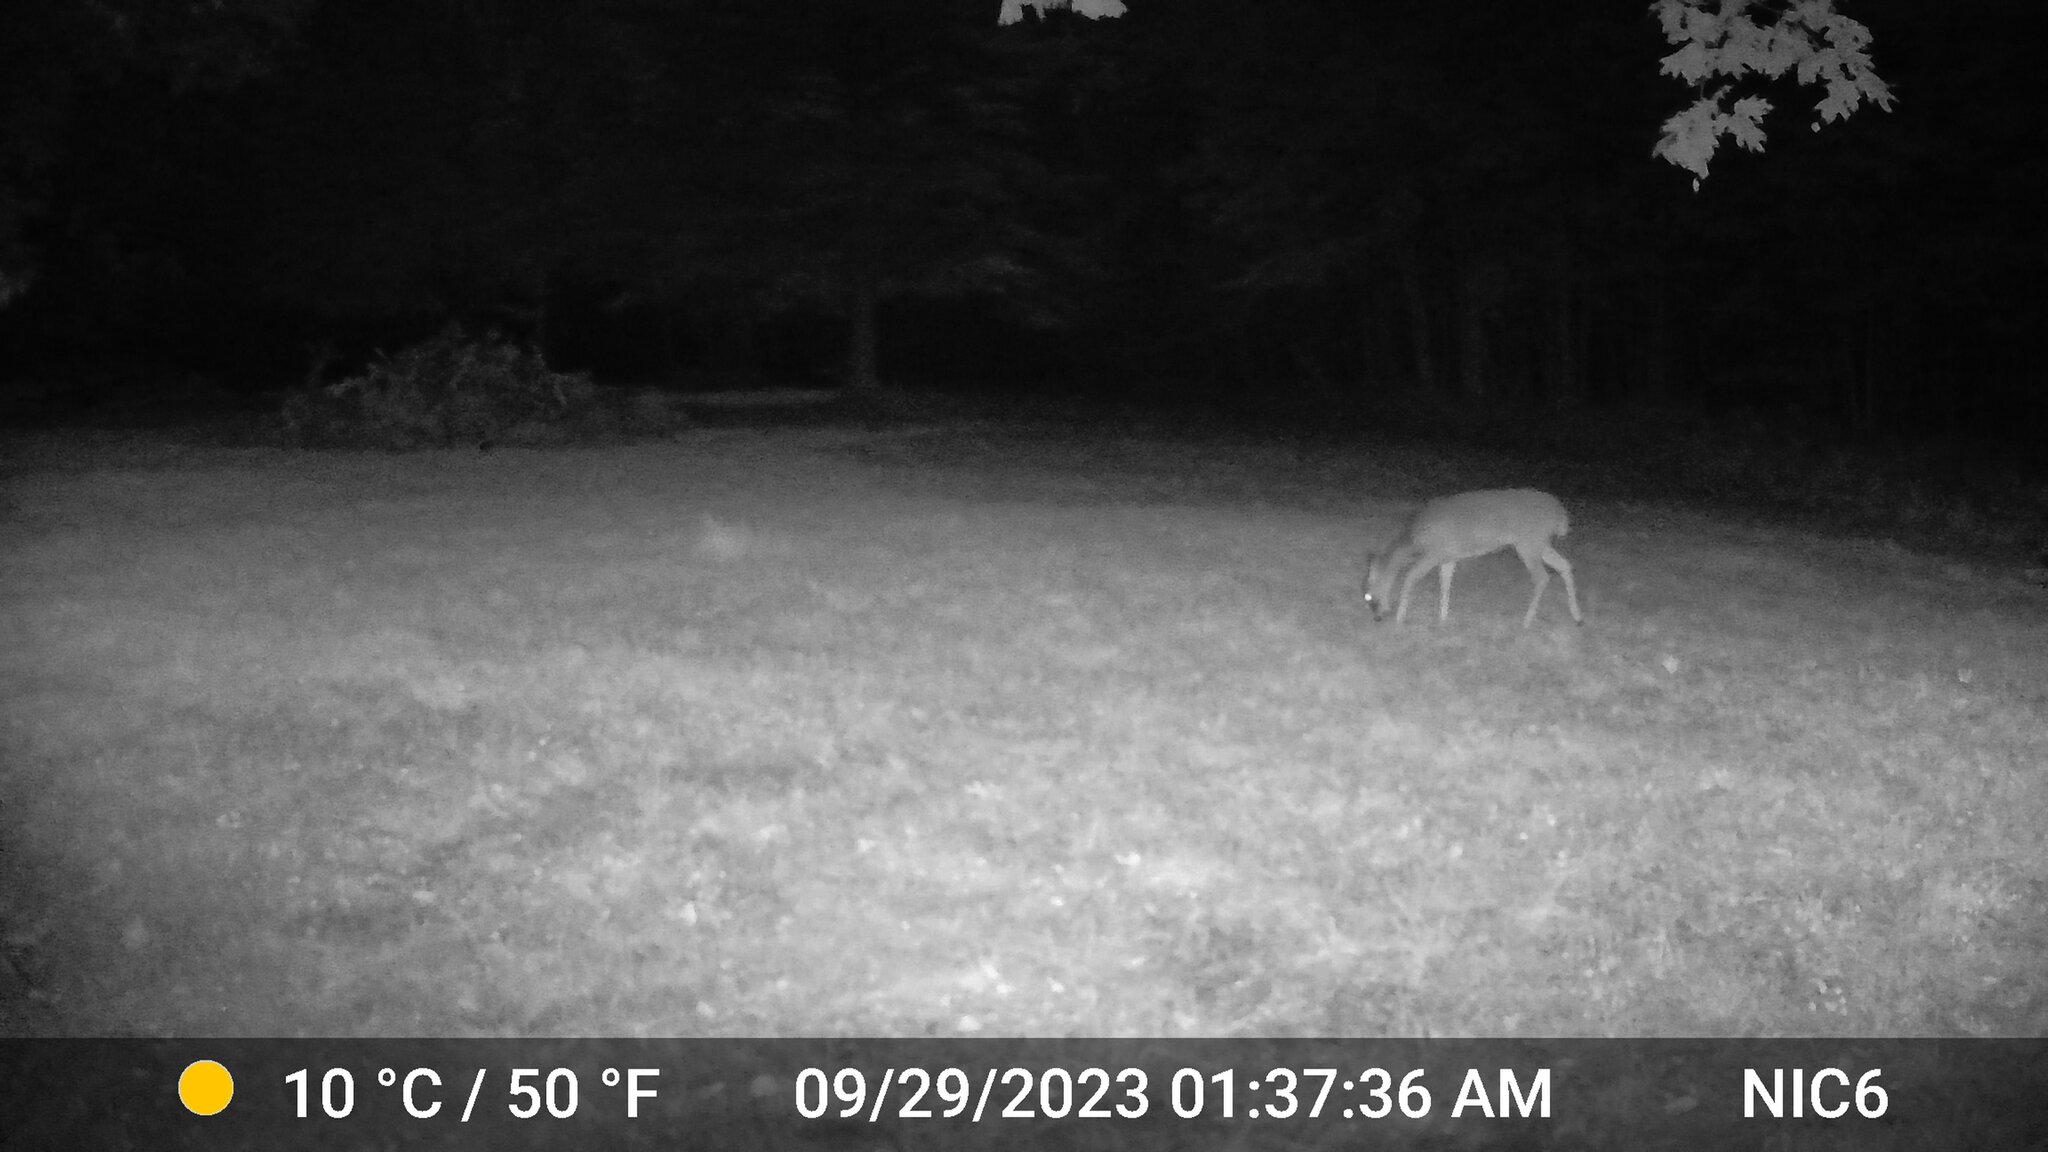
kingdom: Animalia
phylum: Chordata
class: Mammalia
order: Artiodactyla
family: Cervidae
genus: Odocoileus
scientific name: Odocoileus virginianus
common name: White-tailed deer
